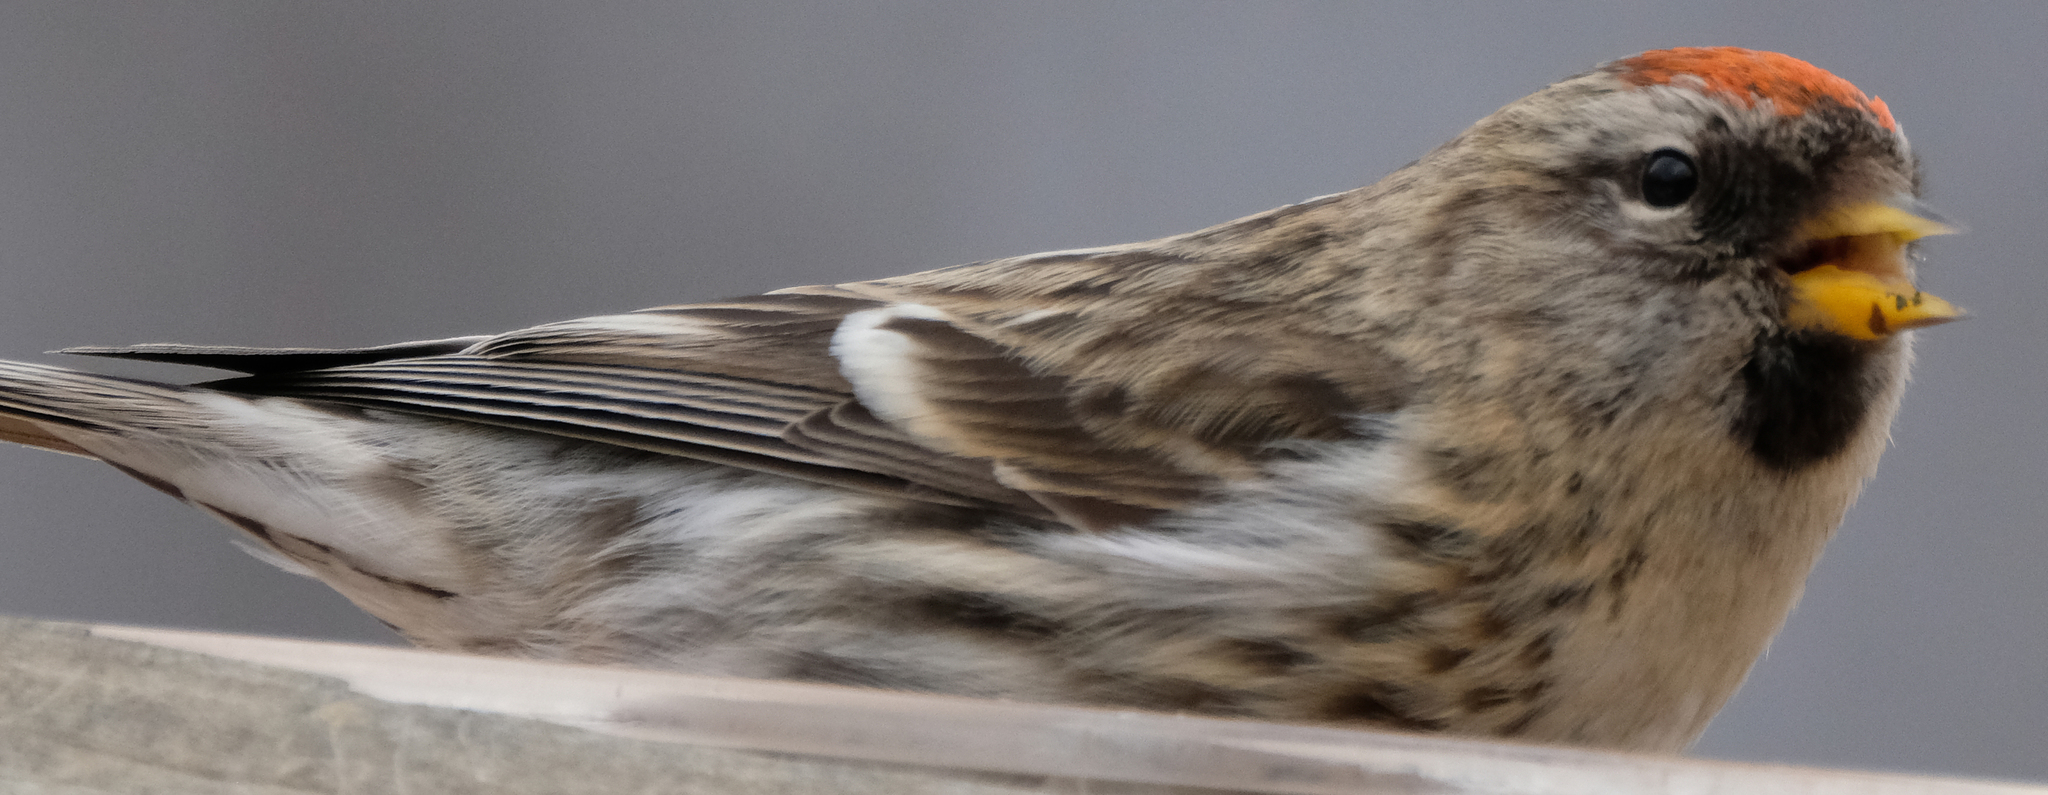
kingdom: Animalia
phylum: Chordata
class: Aves
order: Passeriformes
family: Fringillidae
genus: Acanthis
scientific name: Acanthis flammea
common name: Common redpoll
